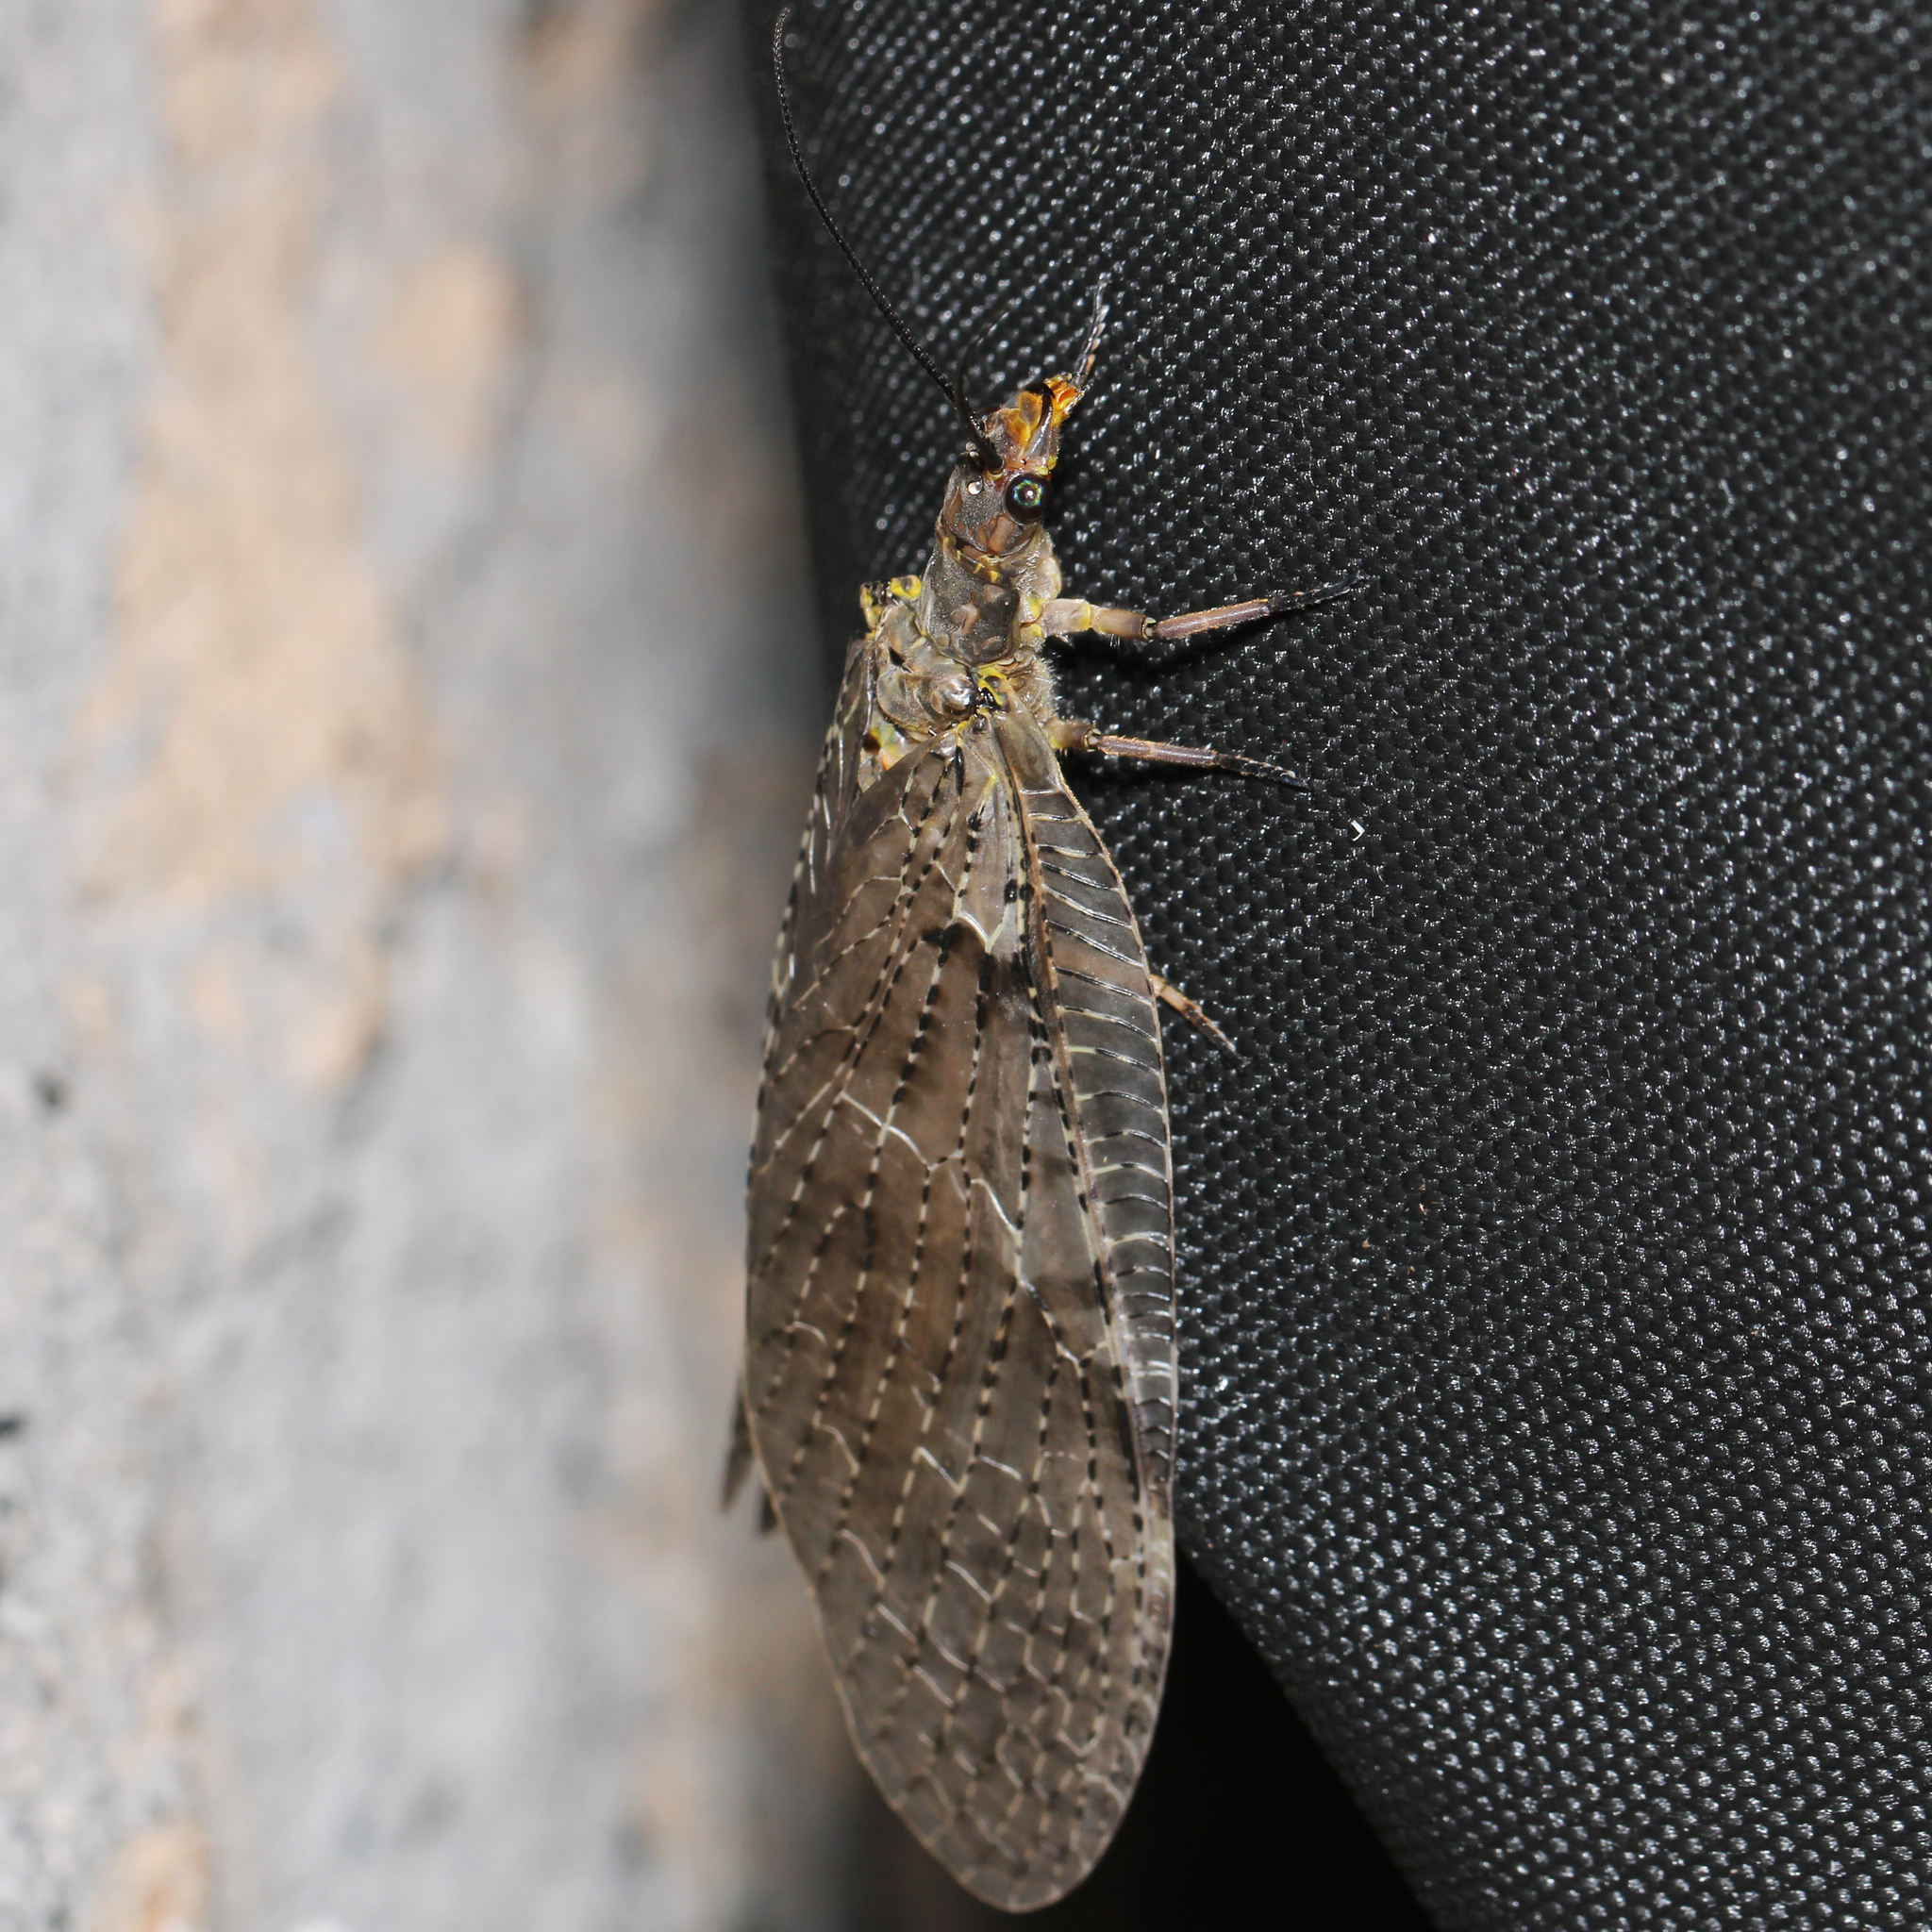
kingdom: Animalia
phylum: Arthropoda
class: Insecta
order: Megaloptera
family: Corydalidae
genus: Chauliodes
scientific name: Chauliodes pectinicornis
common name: Summer fishfly
